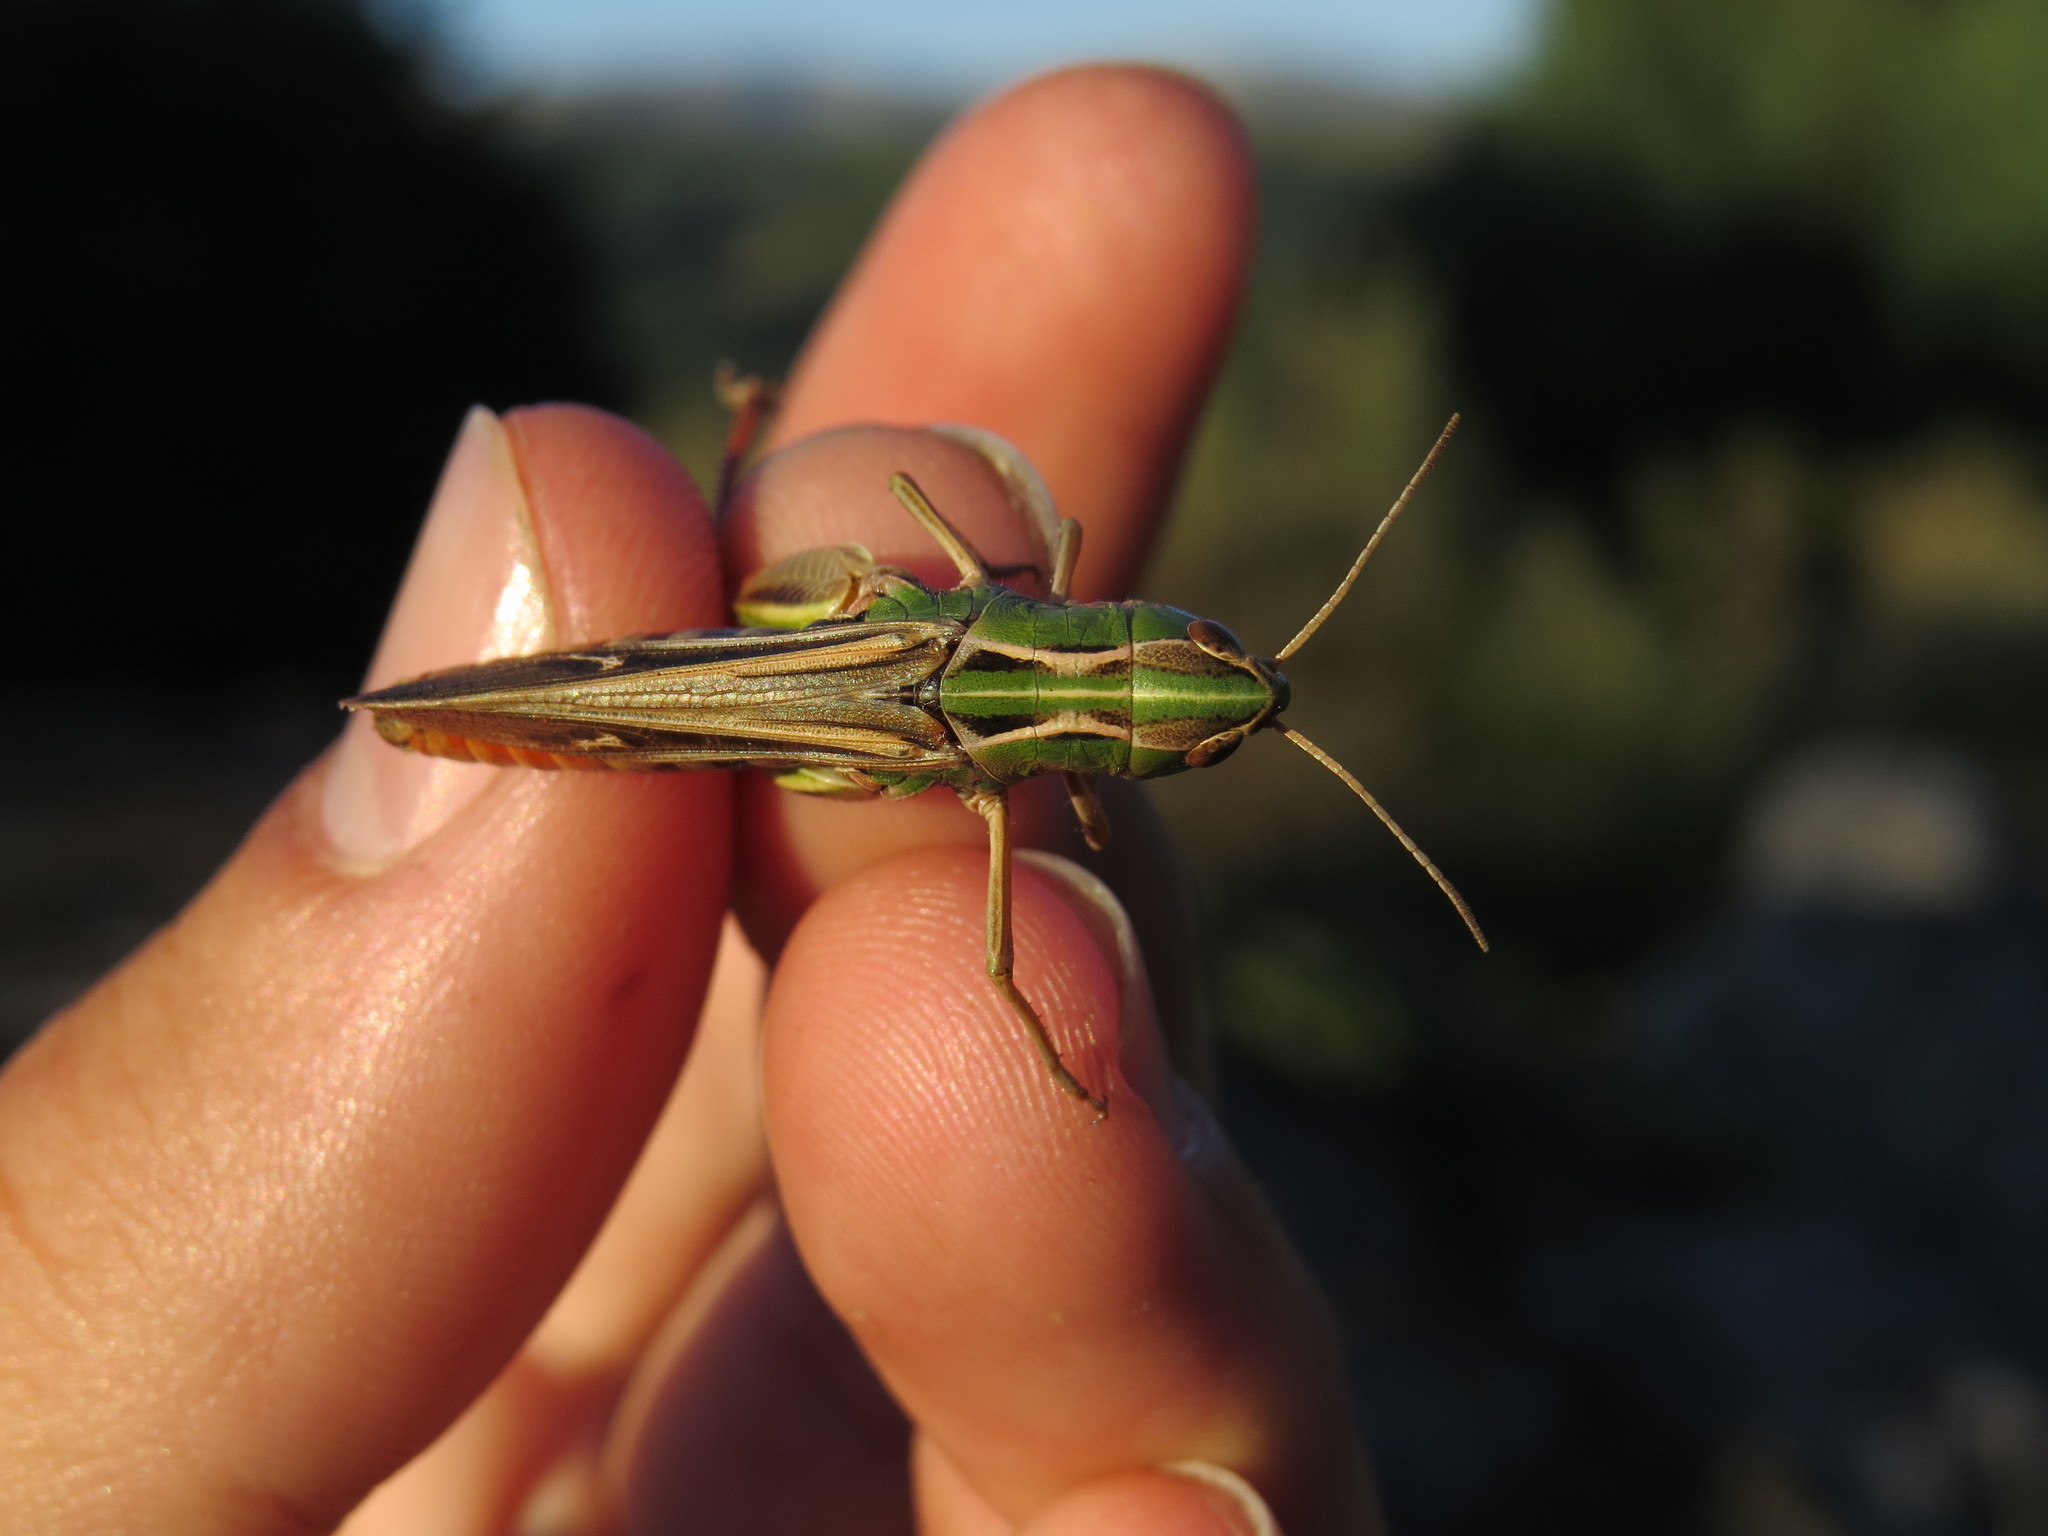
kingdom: Animalia
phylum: Arthropoda
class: Insecta
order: Orthoptera
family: Acrididae
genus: Stenobothrus
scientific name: Stenobothrus lineatus
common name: Stripe-winged grasshopper
